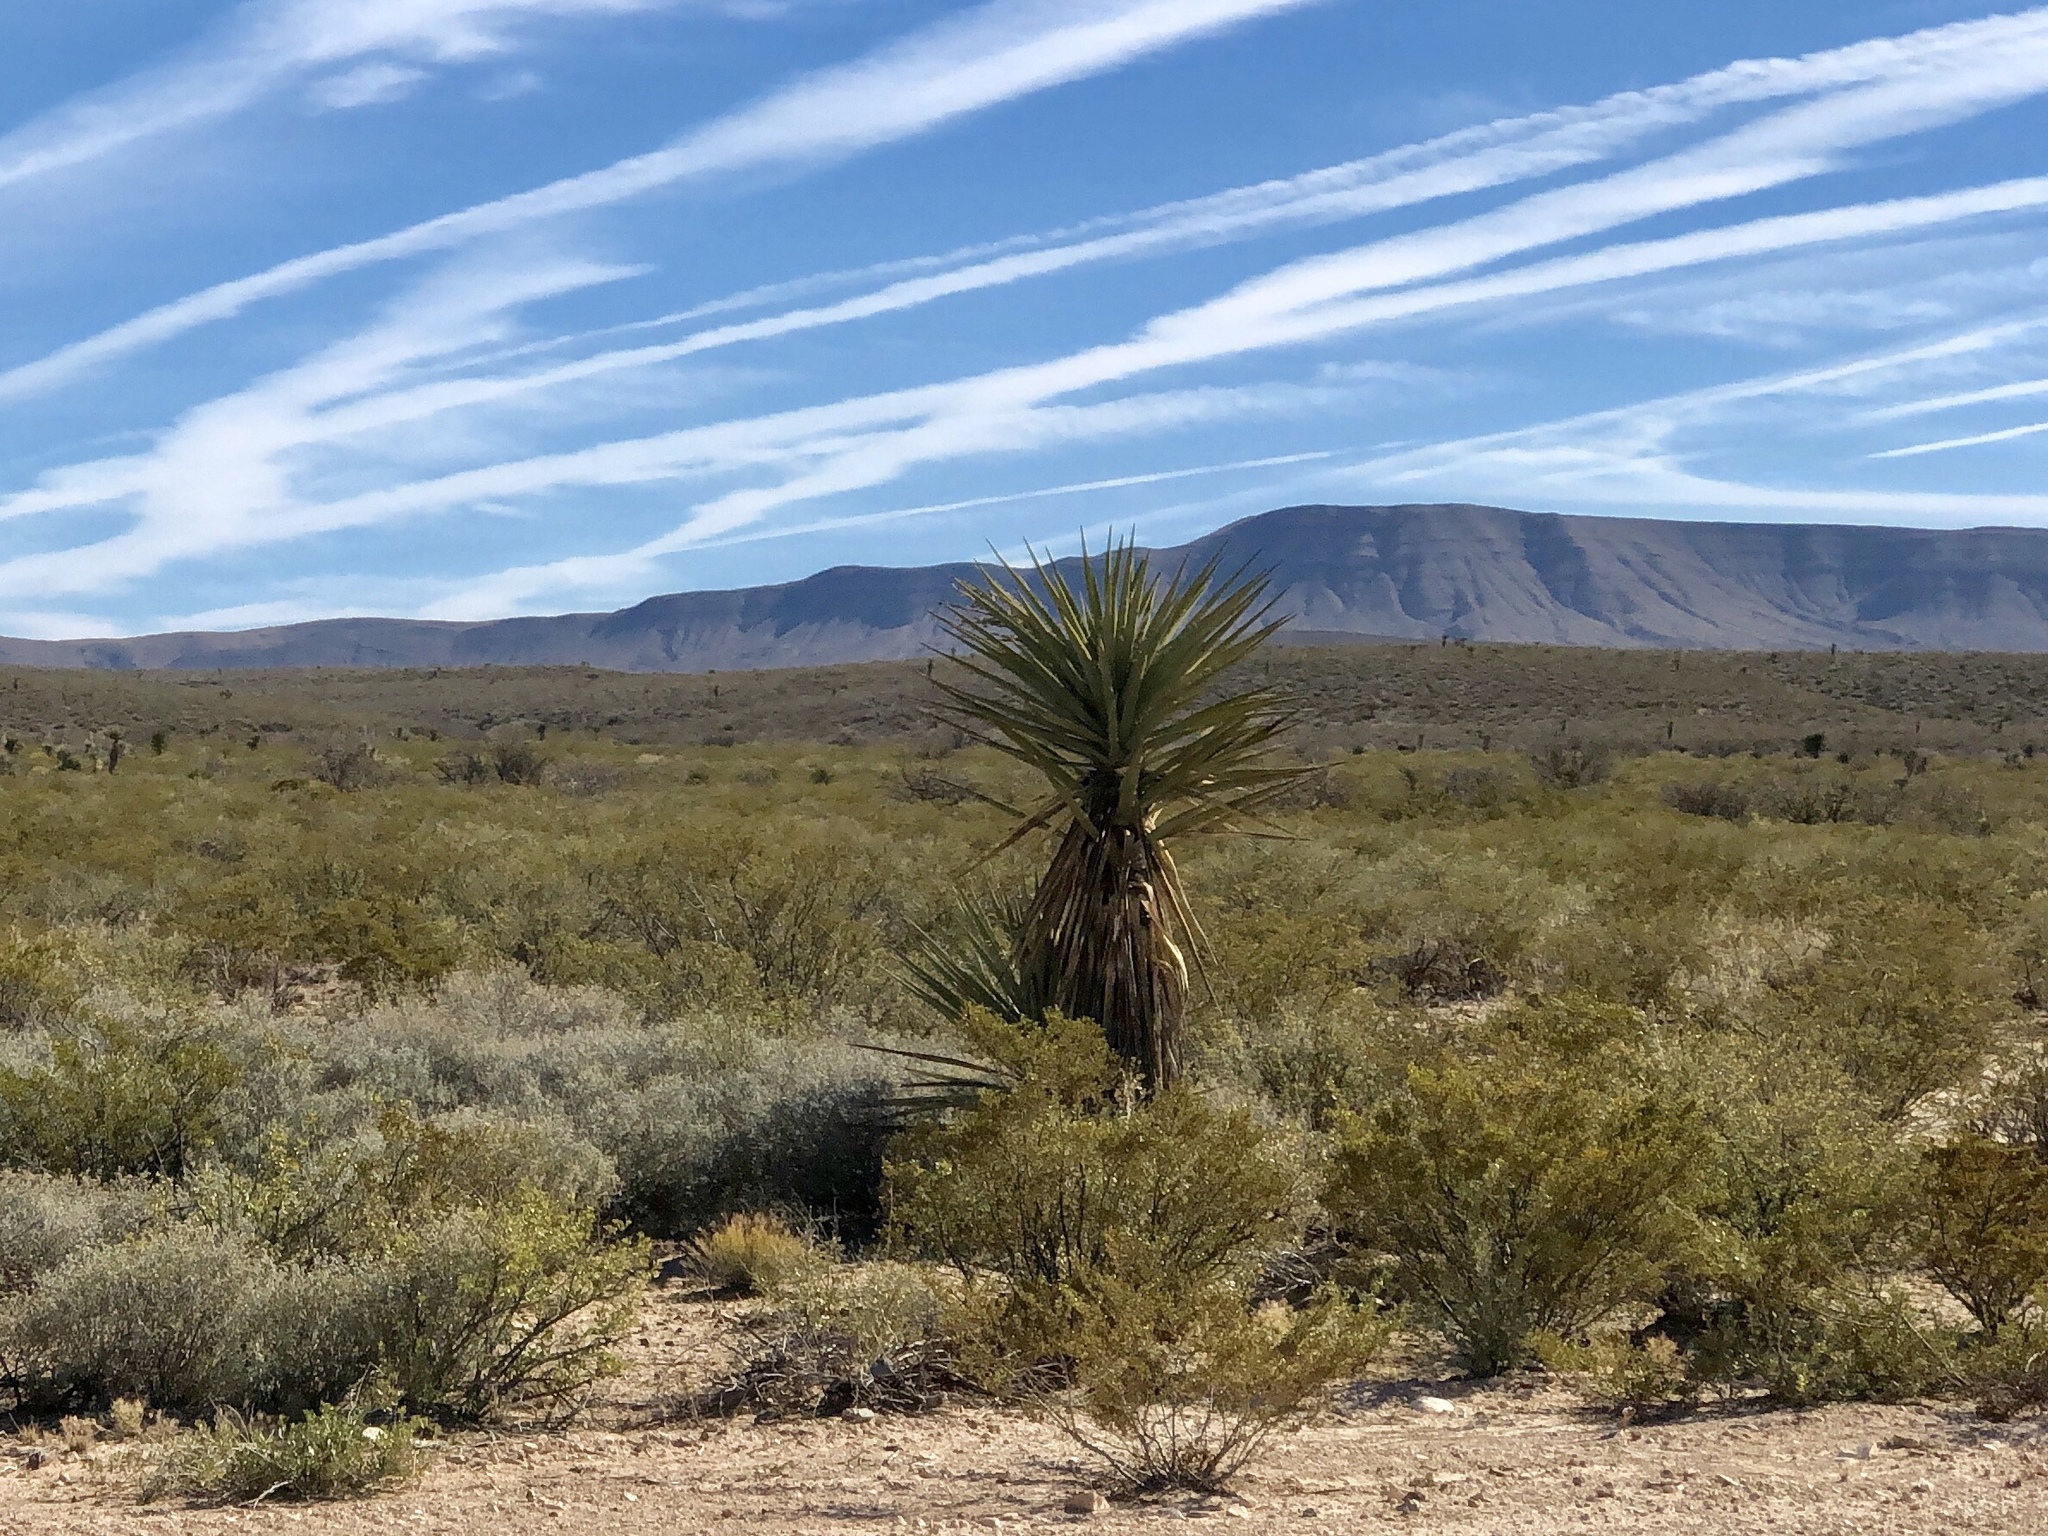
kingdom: Plantae
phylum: Tracheophyta
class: Liliopsida
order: Asparagales
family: Asparagaceae
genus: Yucca
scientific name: Yucca treculiana
